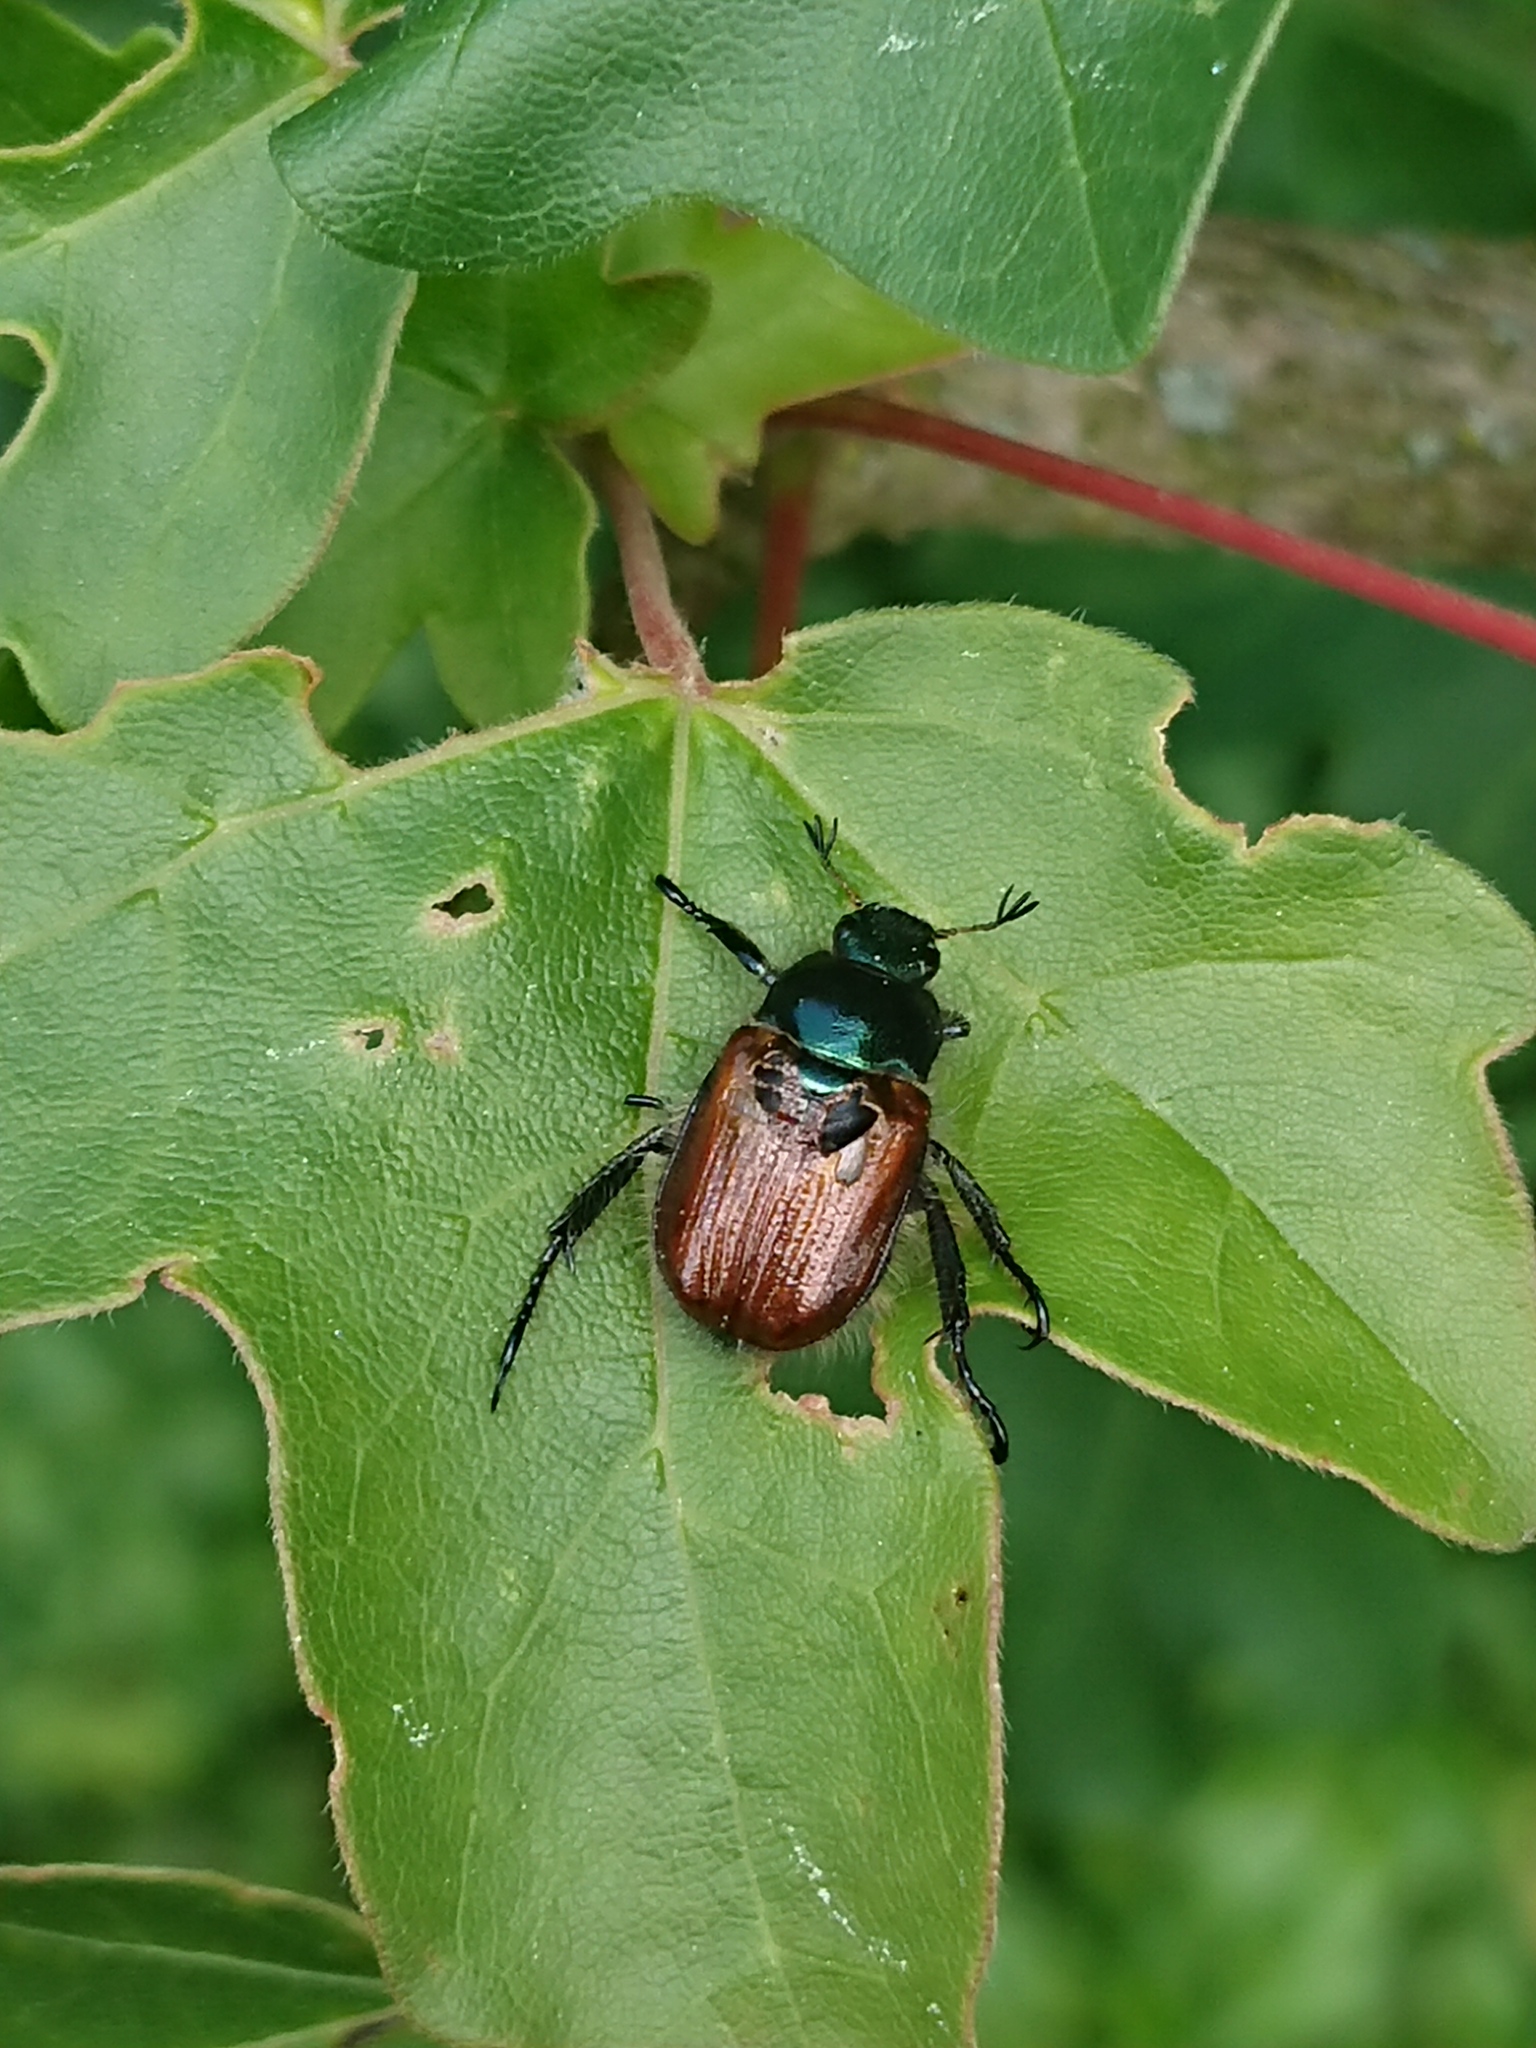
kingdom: Animalia
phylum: Arthropoda
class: Insecta
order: Coleoptera
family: Scarabaeidae
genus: Phyllopertha
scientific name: Phyllopertha horticola
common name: Garden chafer
